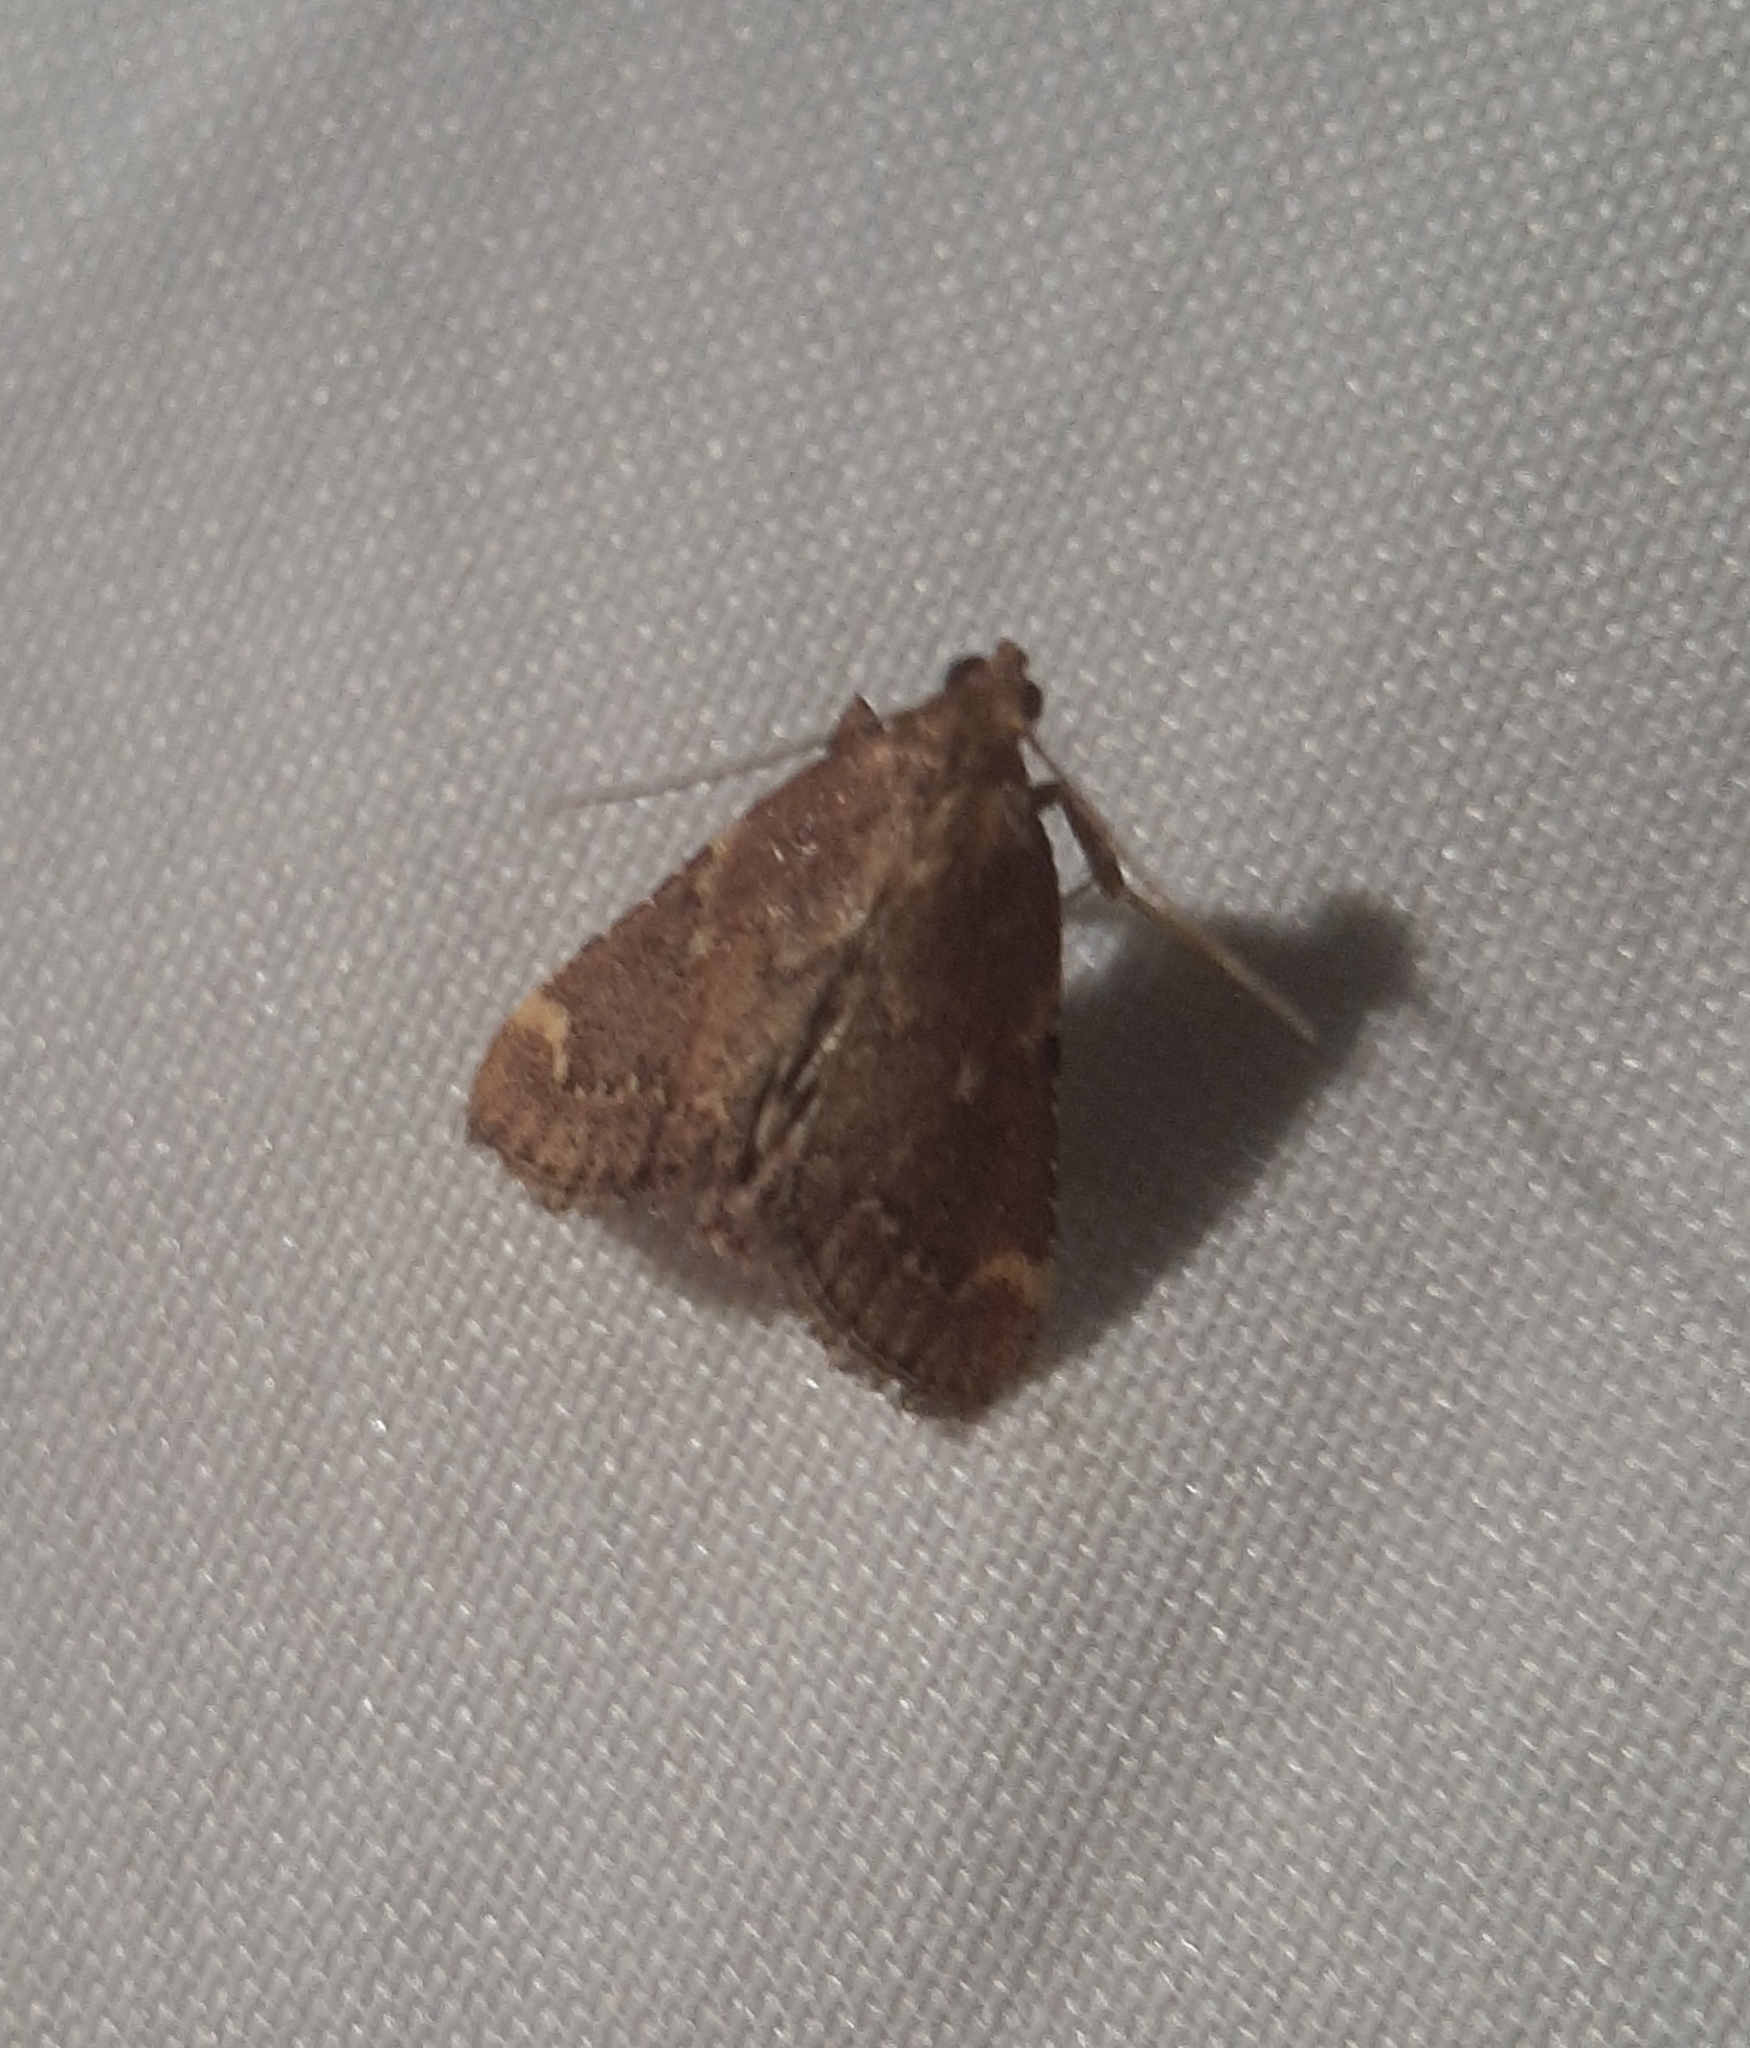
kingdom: Animalia
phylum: Arthropoda
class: Insecta
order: Lepidoptera
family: Pyralidae
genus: Hypsopygia
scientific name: Hypsopygia intermedialis
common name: Red-shawled moth
